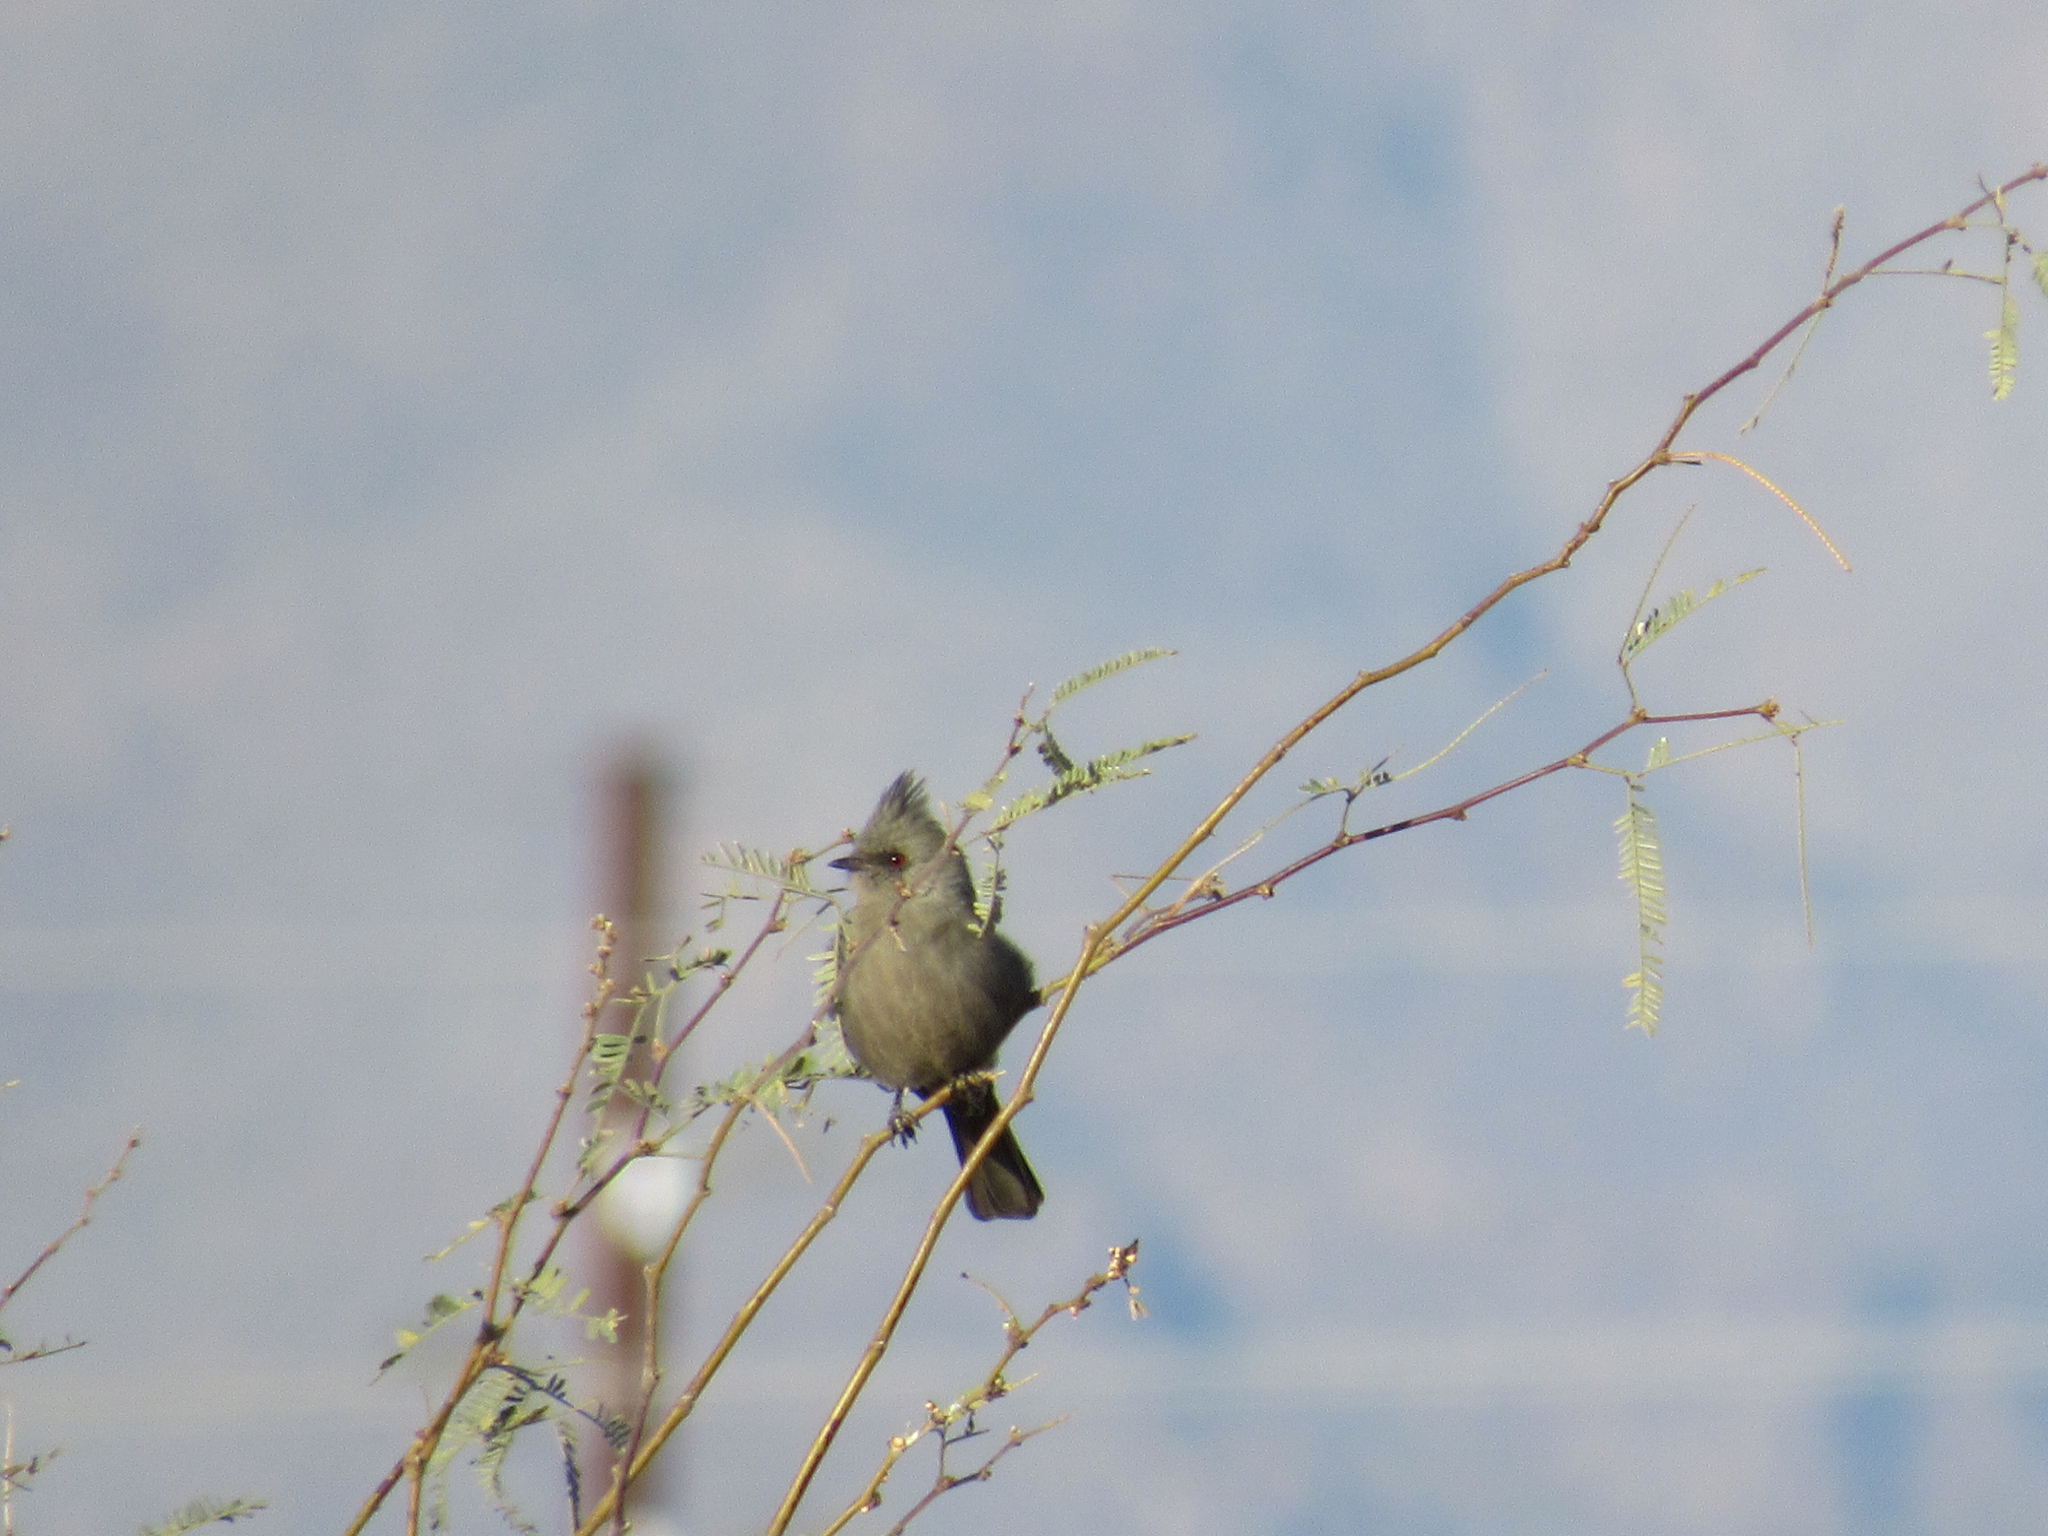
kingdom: Animalia
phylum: Chordata
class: Aves
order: Passeriformes
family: Ptilogonatidae
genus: Phainopepla
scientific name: Phainopepla nitens
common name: Phainopepla
